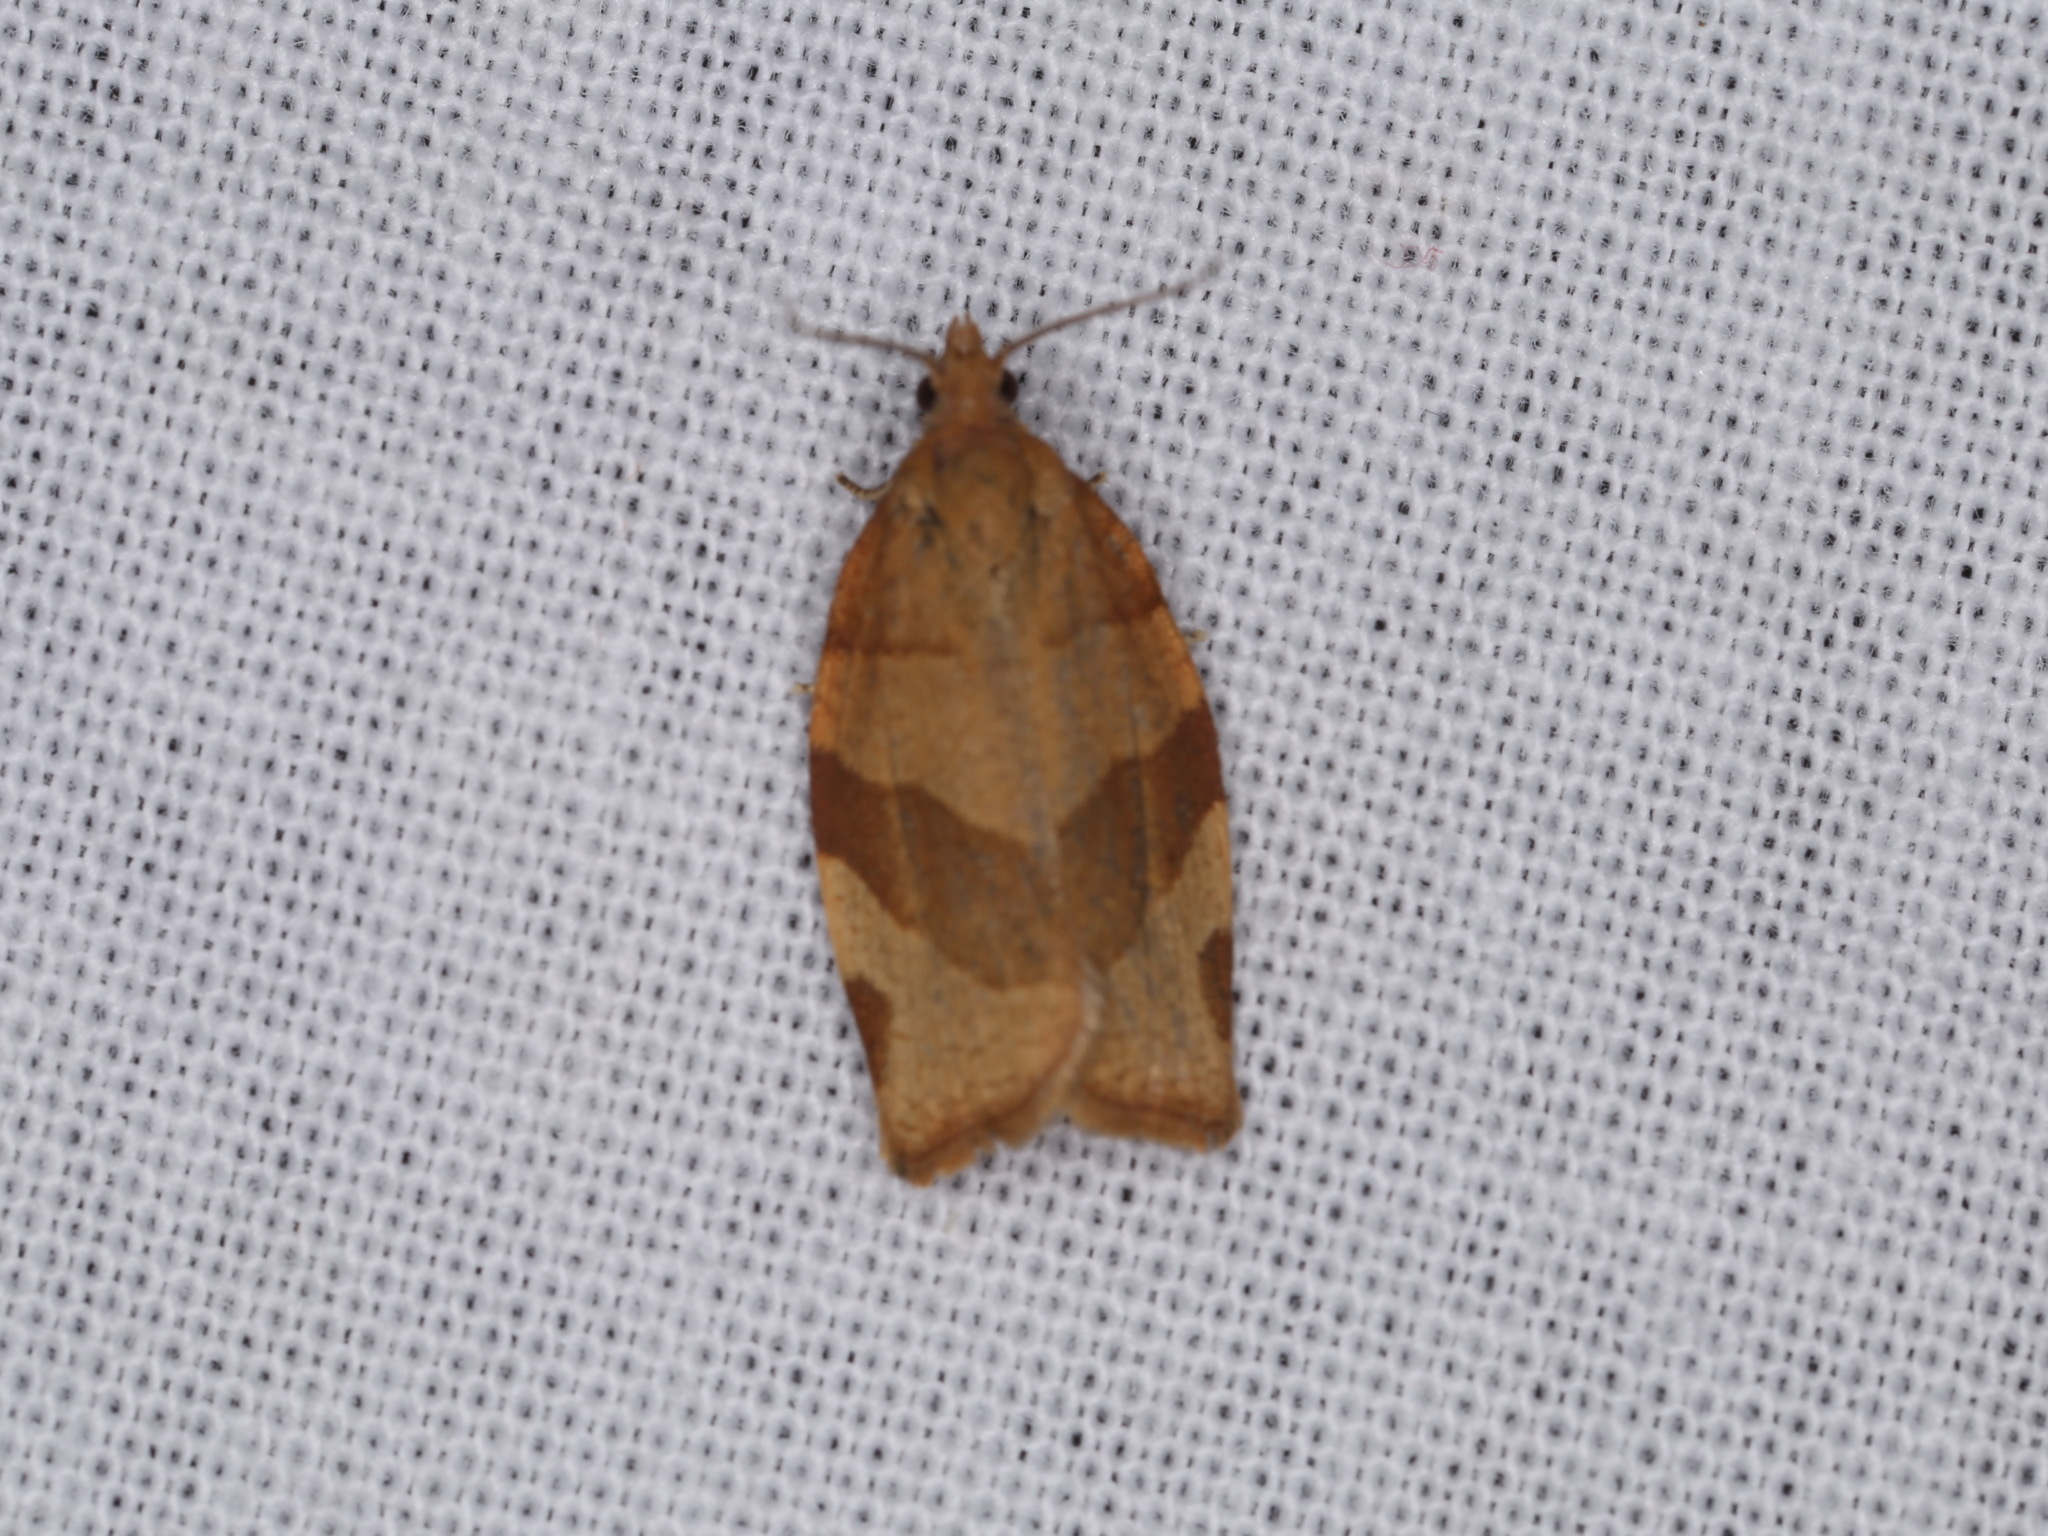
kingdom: Animalia
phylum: Arthropoda
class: Insecta
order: Lepidoptera
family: Tortricidae
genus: Pandemis
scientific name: Pandemis cerasana
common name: Barred fruit-tree tortrix
